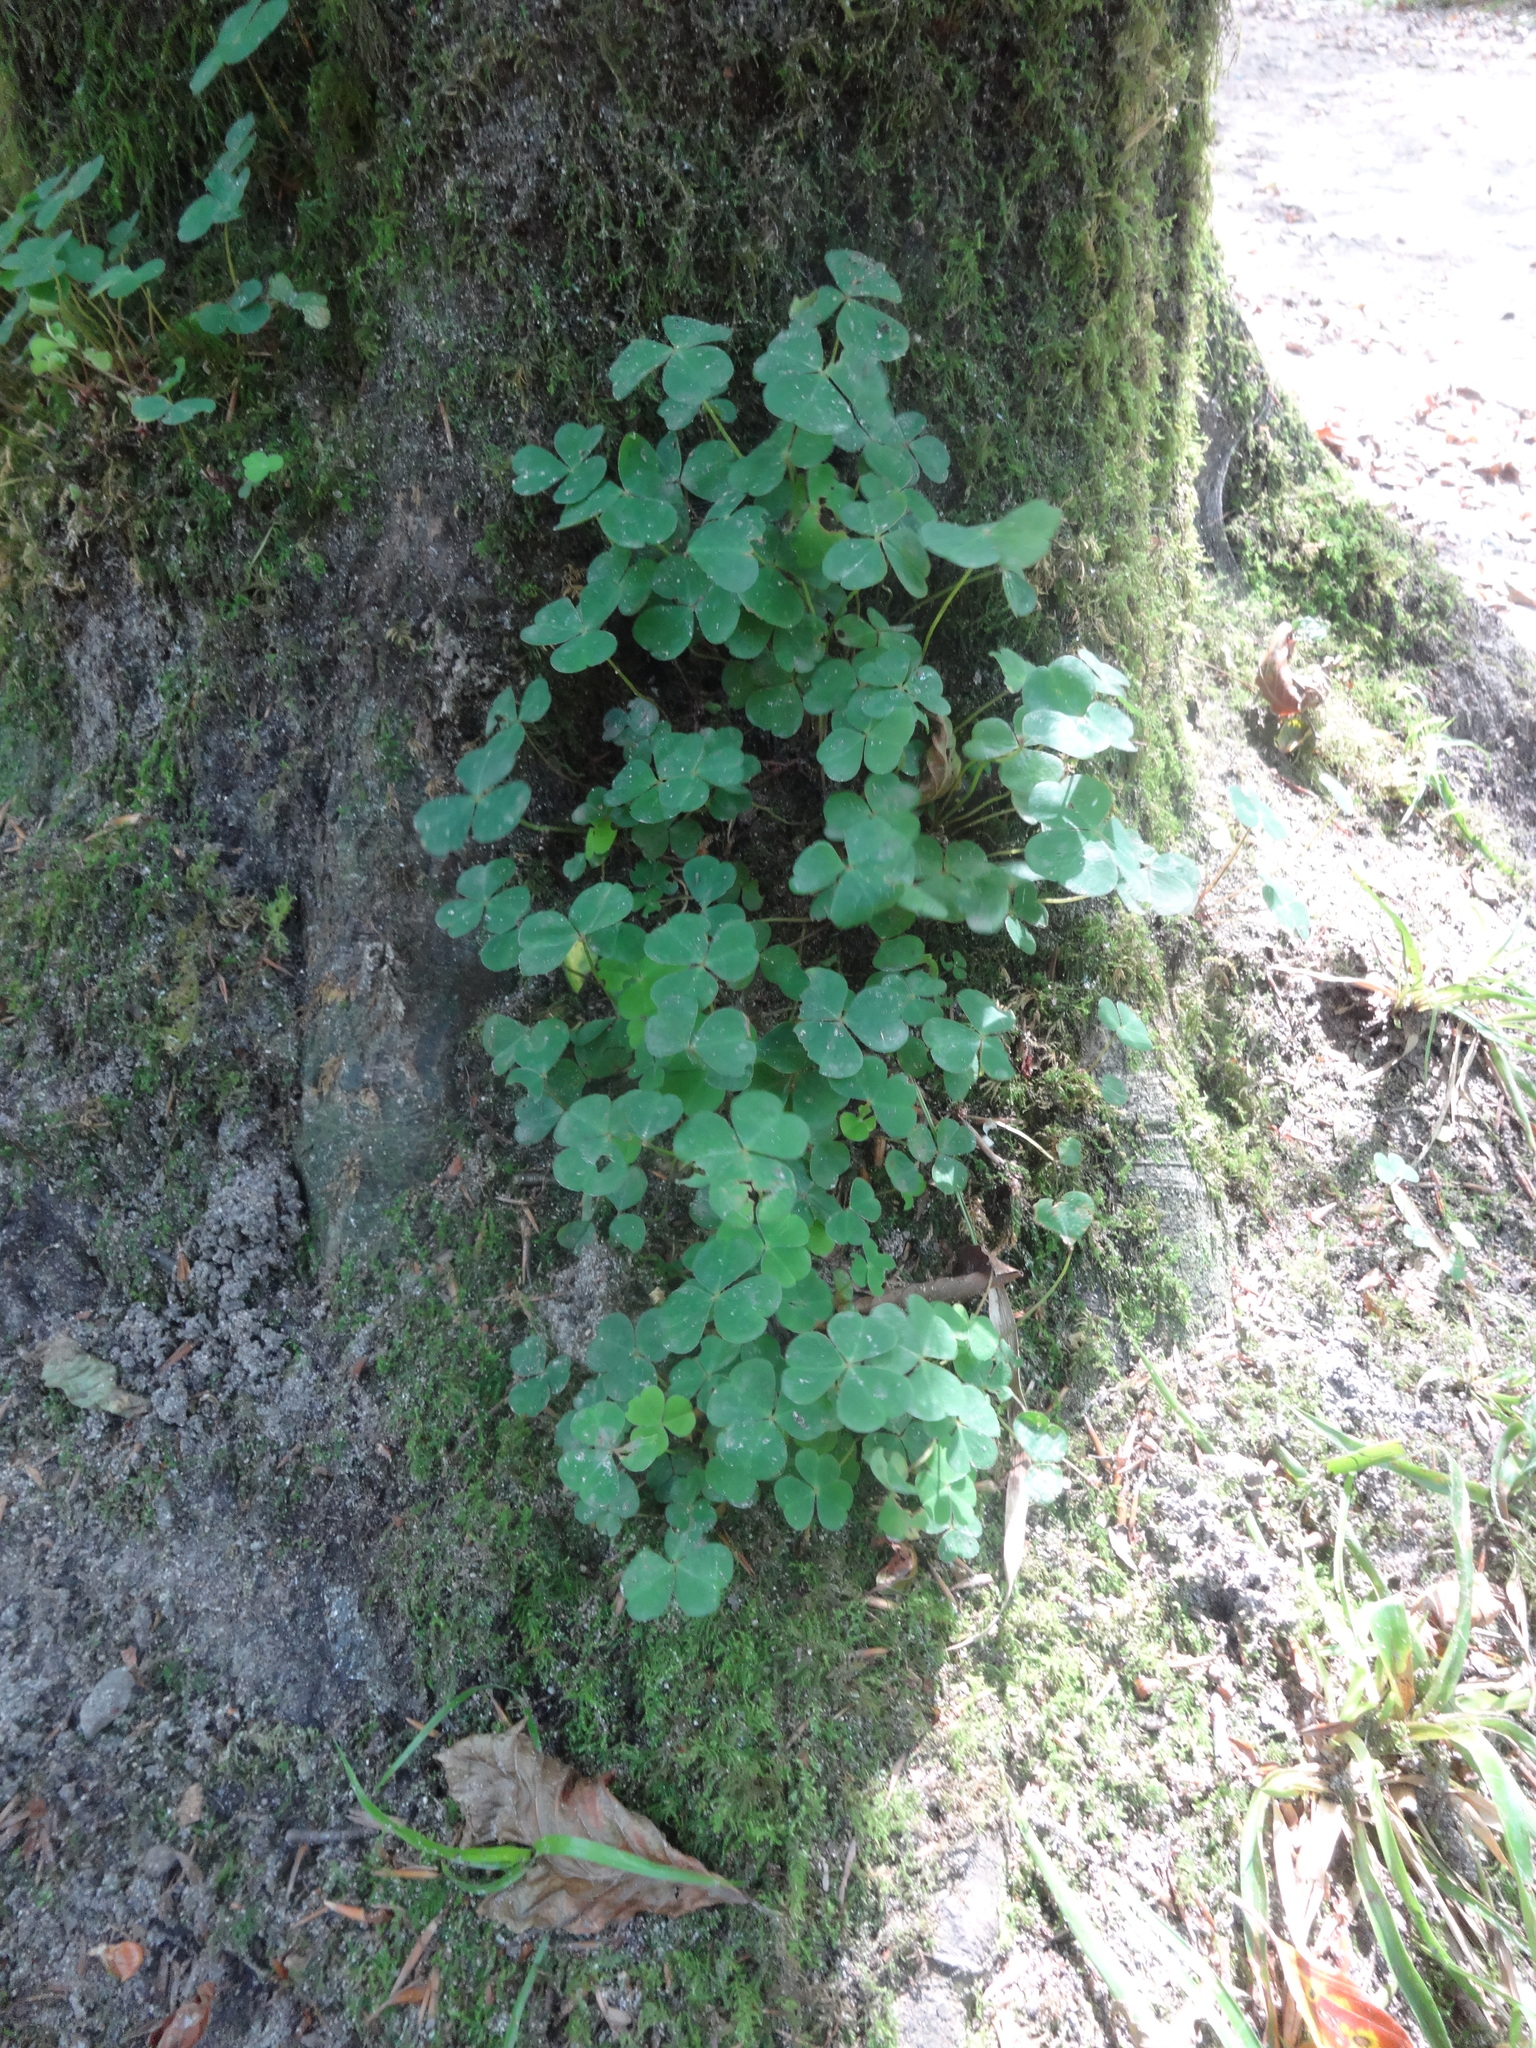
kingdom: Plantae
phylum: Tracheophyta
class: Magnoliopsida
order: Oxalidales
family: Oxalidaceae
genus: Oxalis
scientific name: Oxalis acetosella
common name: Wood-sorrel
